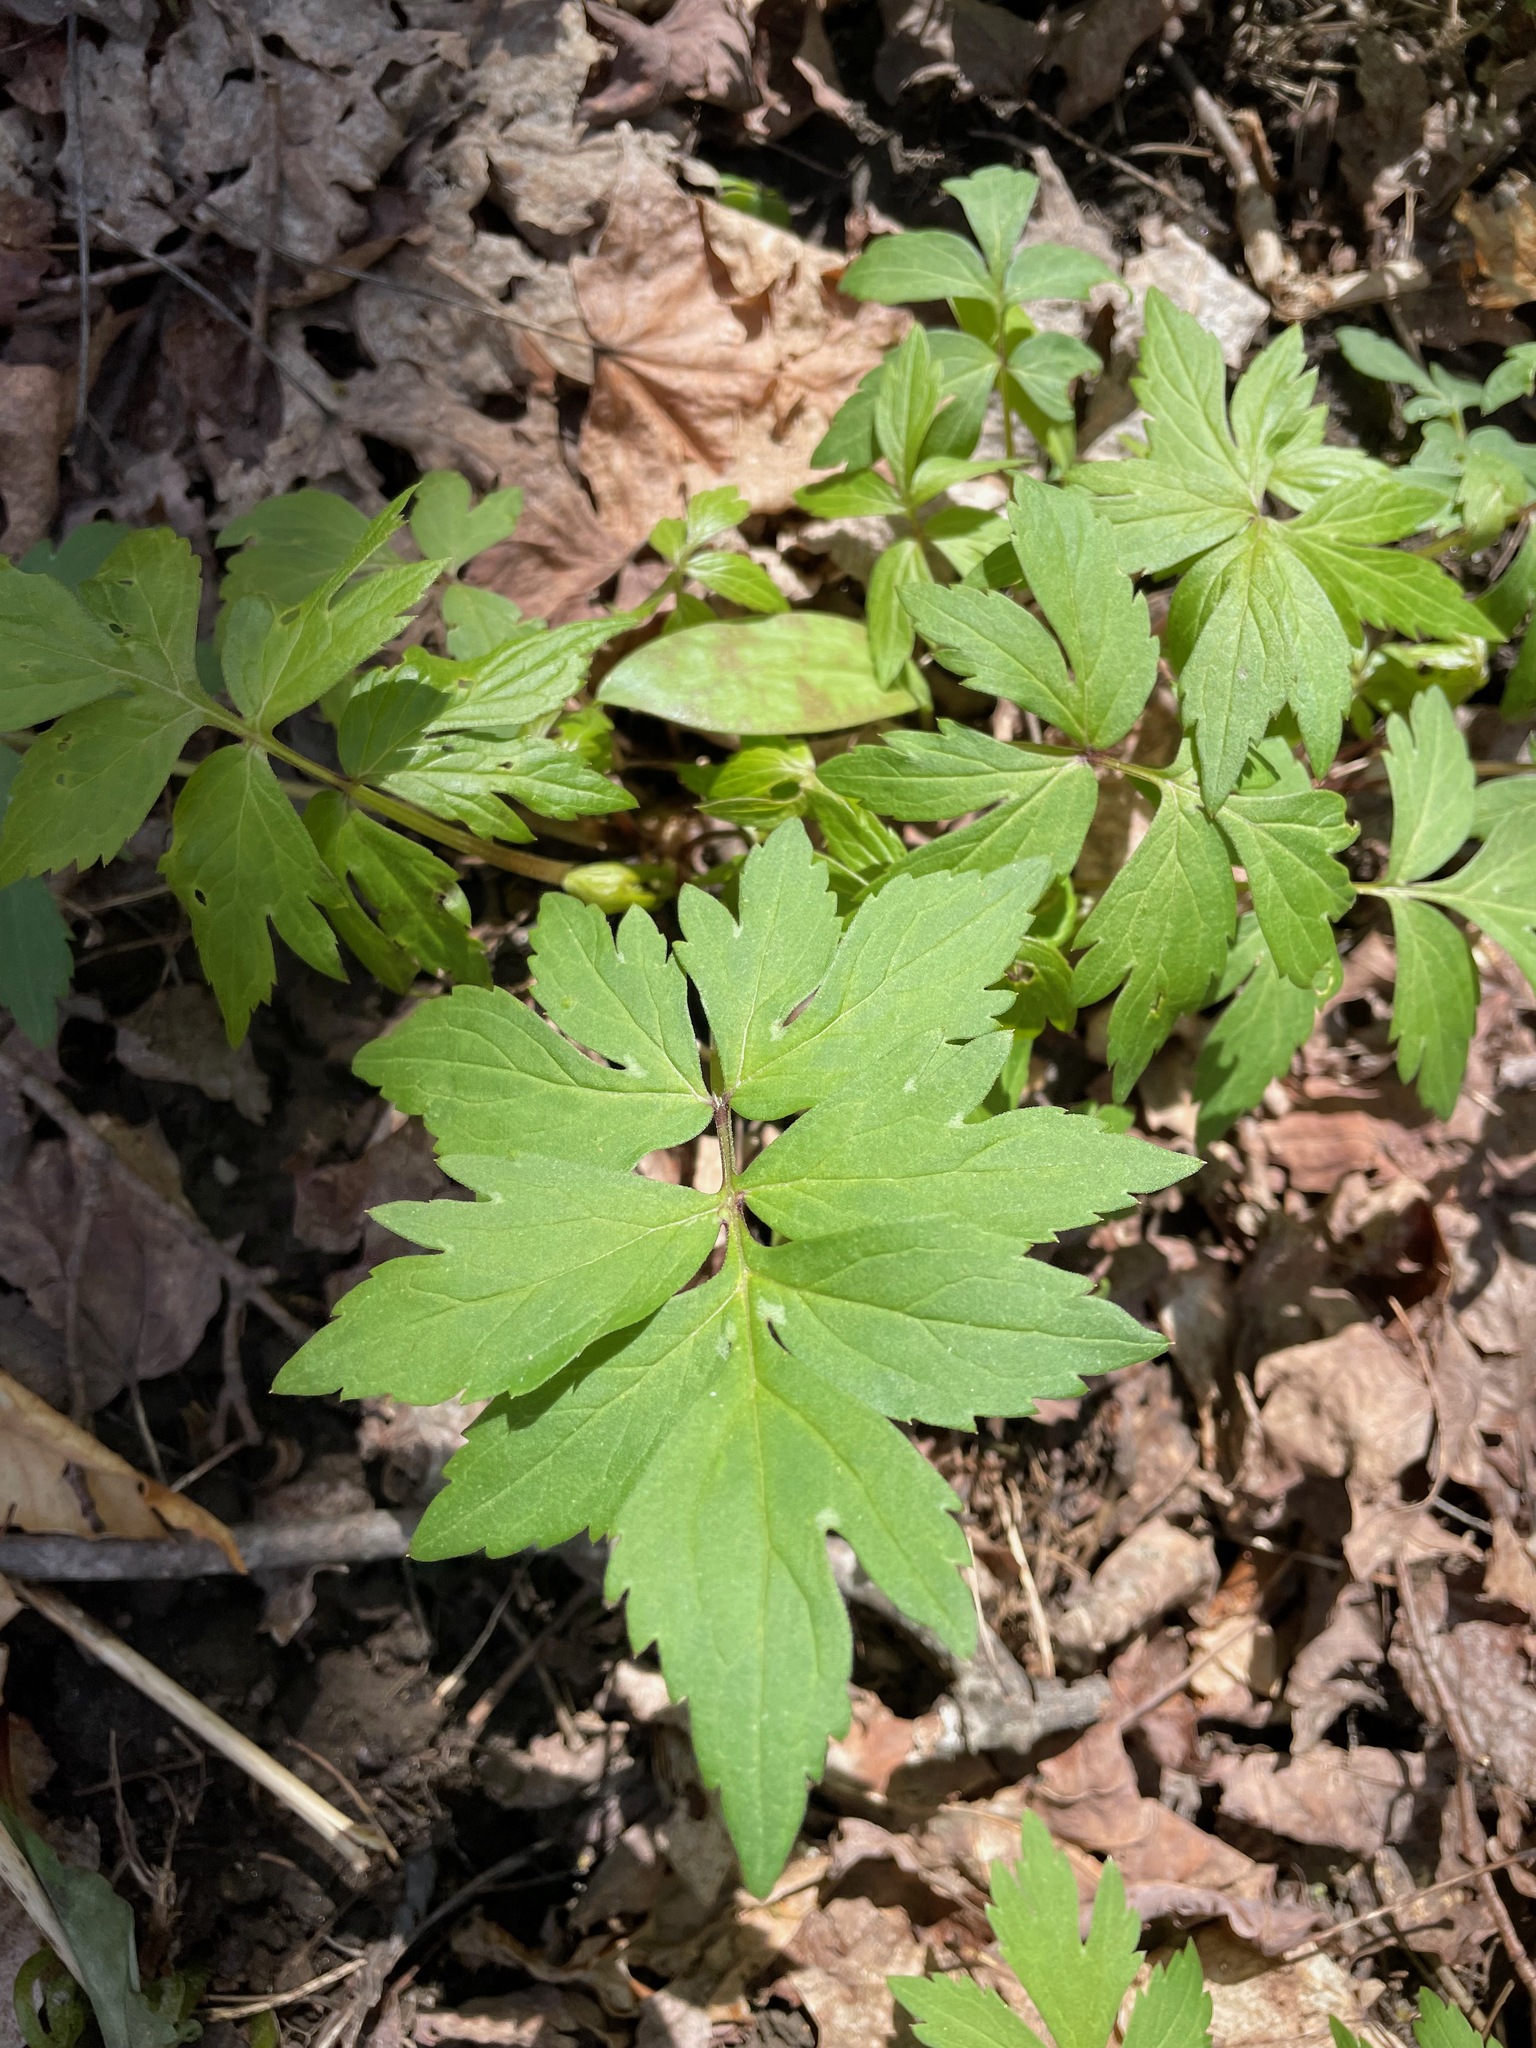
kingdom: Plantae
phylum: Tracheophyta
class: Magnoliopsida
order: Boraginales
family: Hydrophyllaceae
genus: Hydrophyllum
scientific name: Hydrophyllum virginianum
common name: Virginia waterleaf
